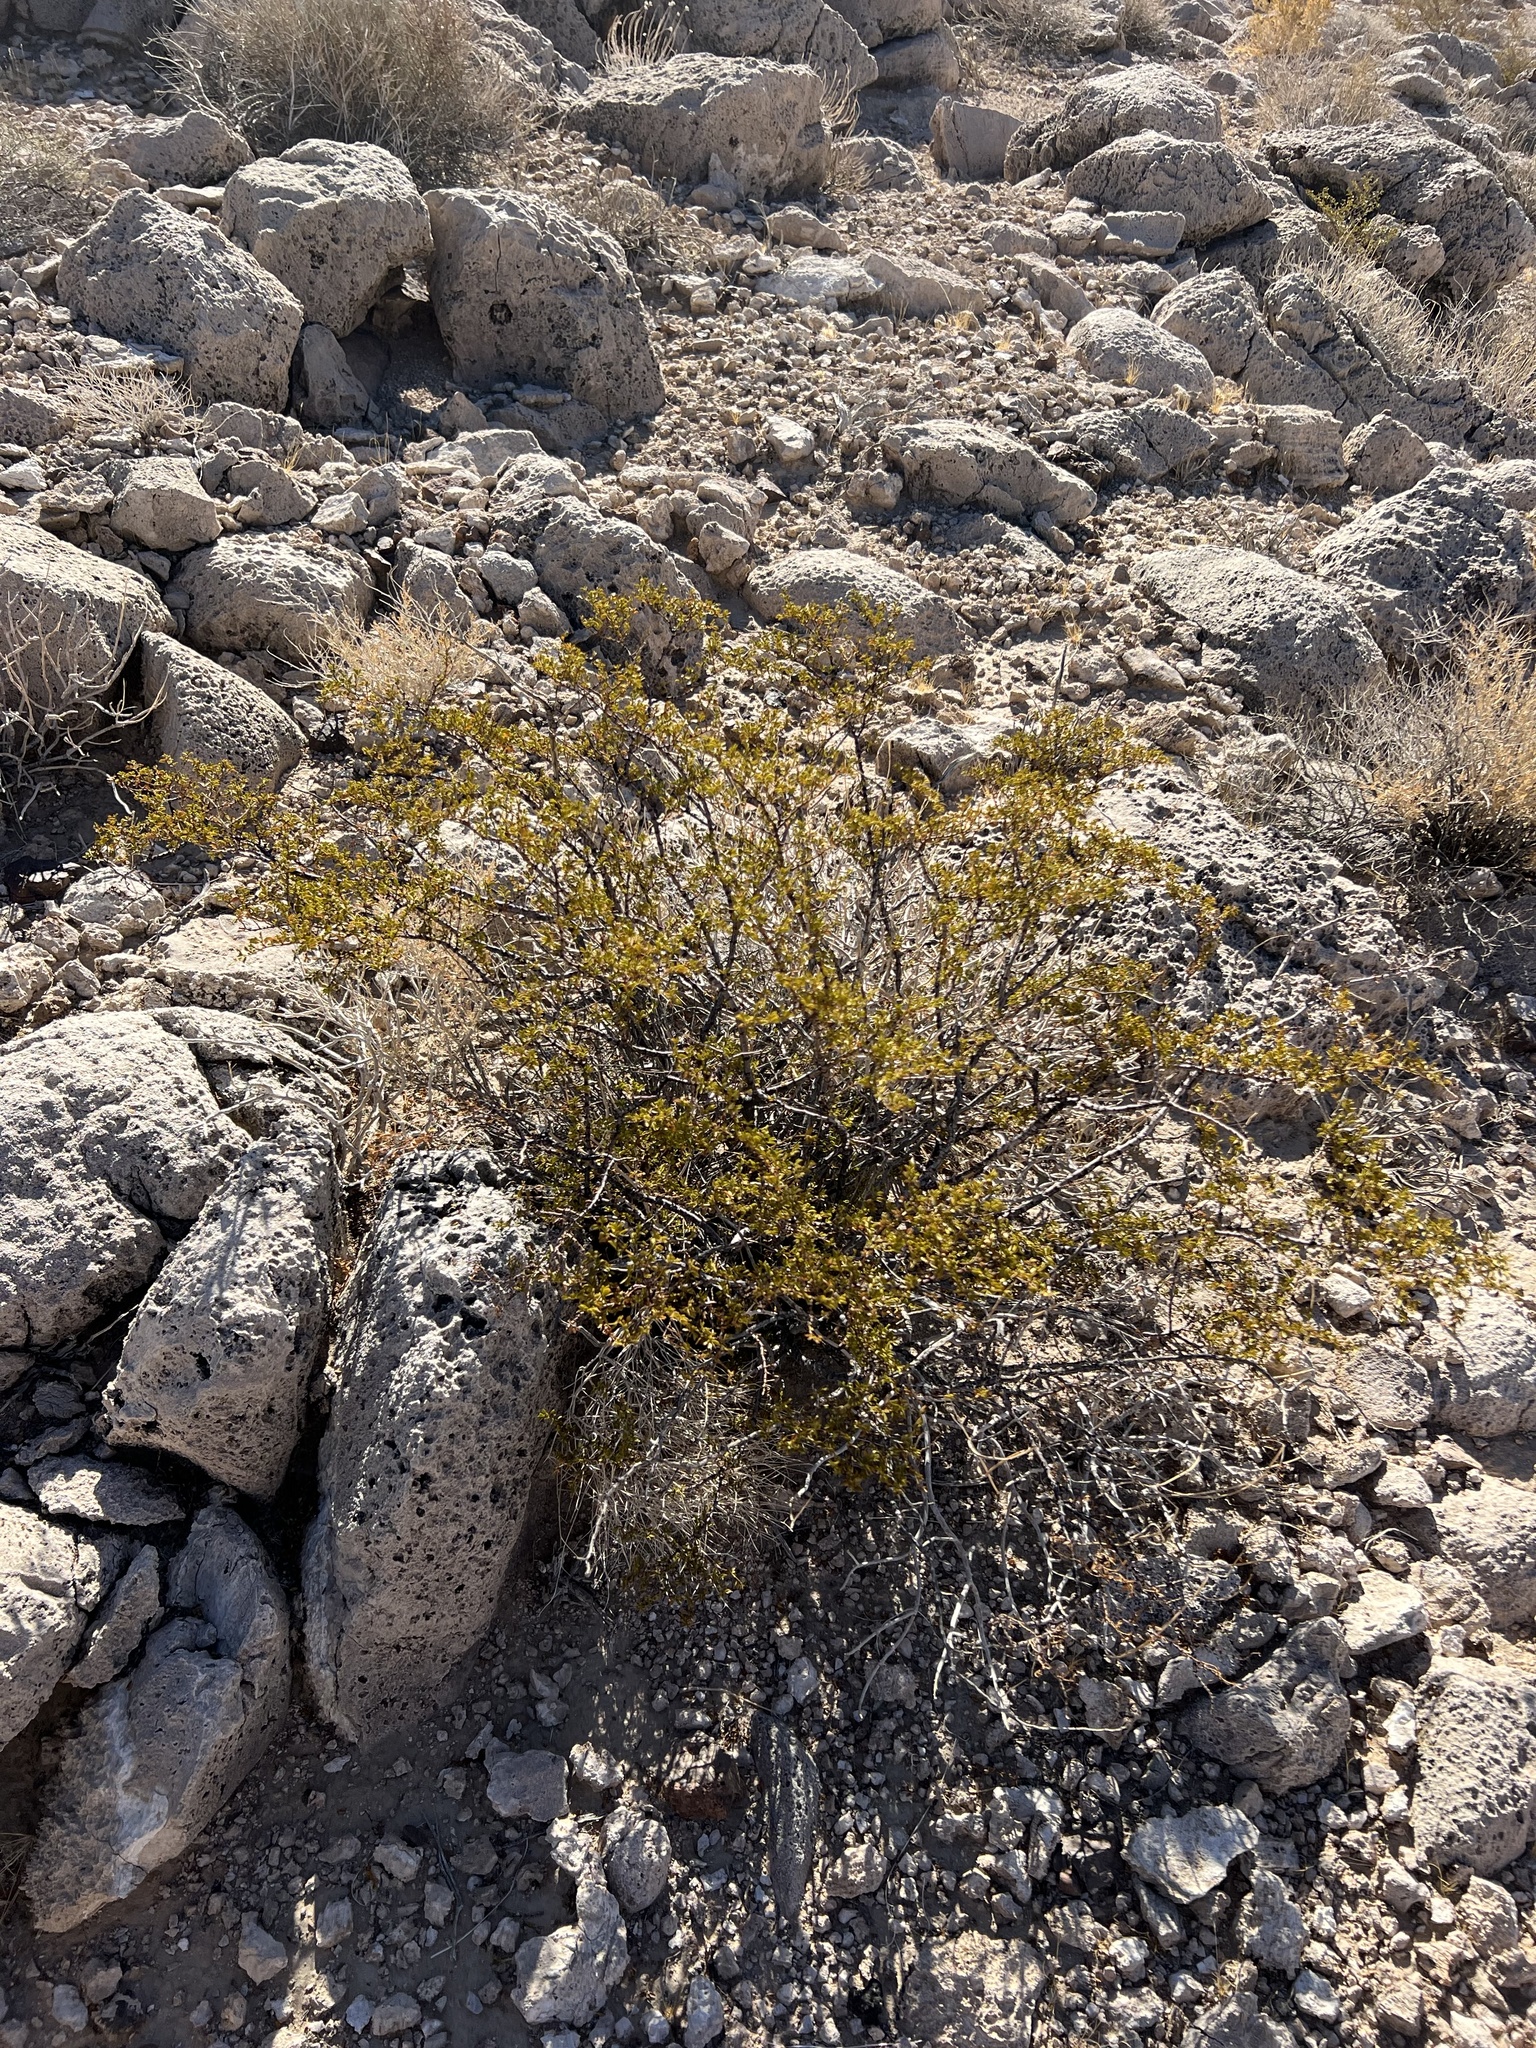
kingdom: Plantae
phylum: Tracheophyta
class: Magnoliopsida
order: Zygophyllales
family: Zygophyllaceae
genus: Larrea
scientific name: Larrea tridentata
